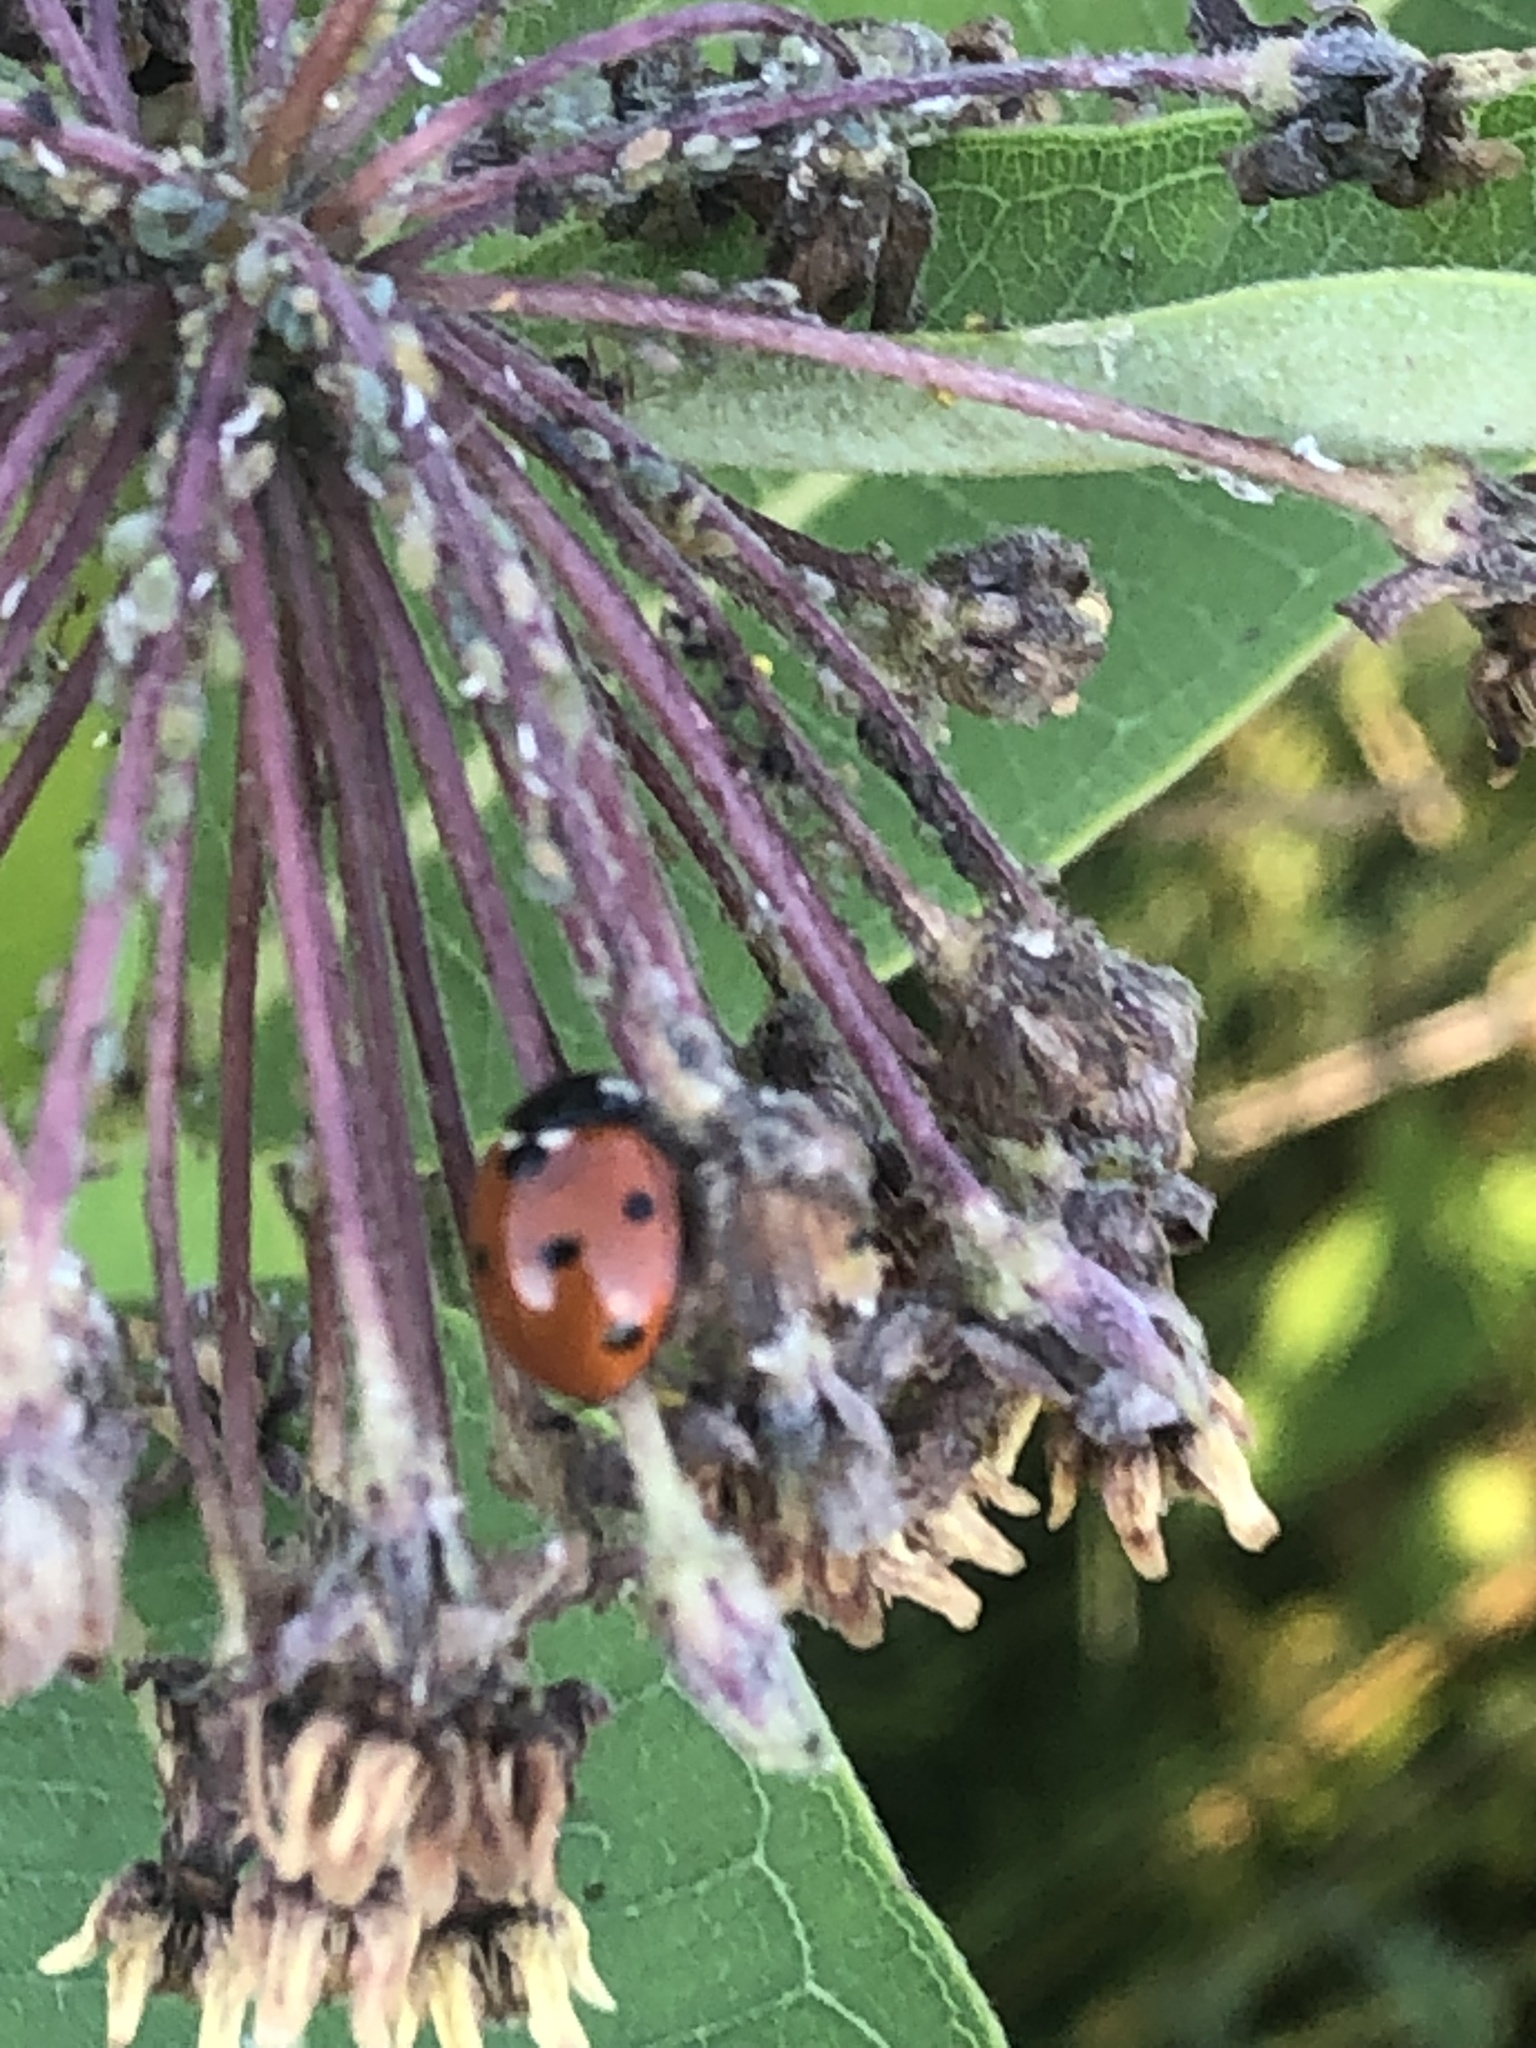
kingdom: Animalia
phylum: Arthropoda
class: Insecta
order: Coleoptera
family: Coccinellidae
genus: Coccinella
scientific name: Coccinella septempunctata
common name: Sevenspotted lady beetle
